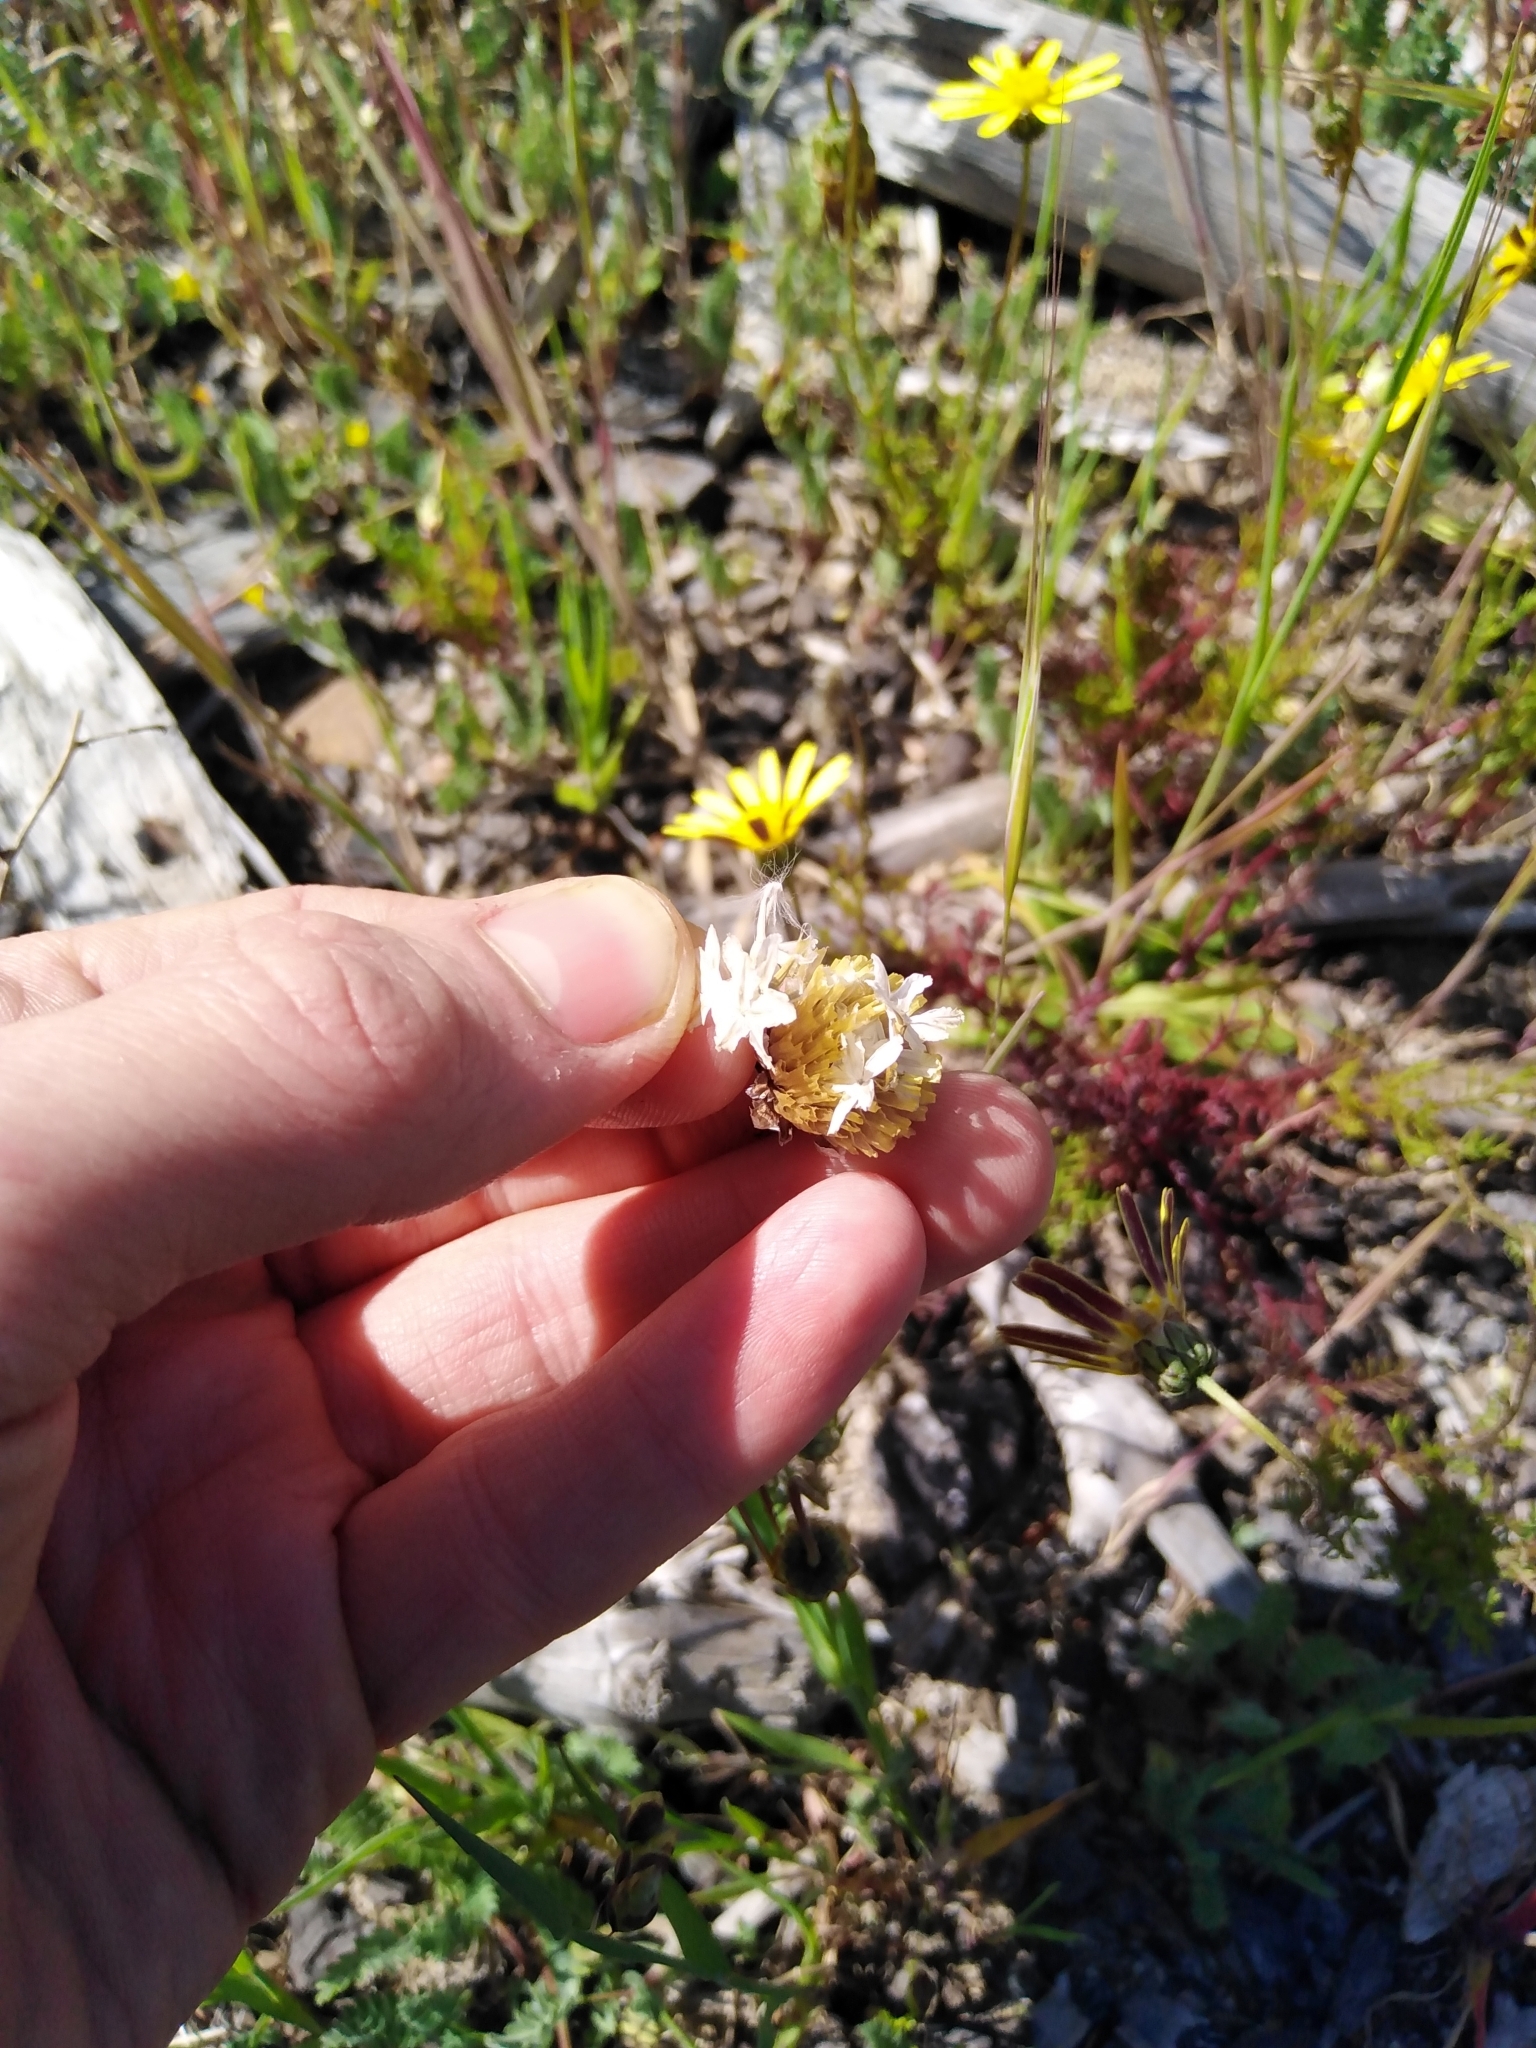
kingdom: Plantae
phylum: Tracheophyta
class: Magnoliopsida
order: Asterales
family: Asteraceae
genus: Ursinia
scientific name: Ursinia anthemoides
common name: Ursinia
